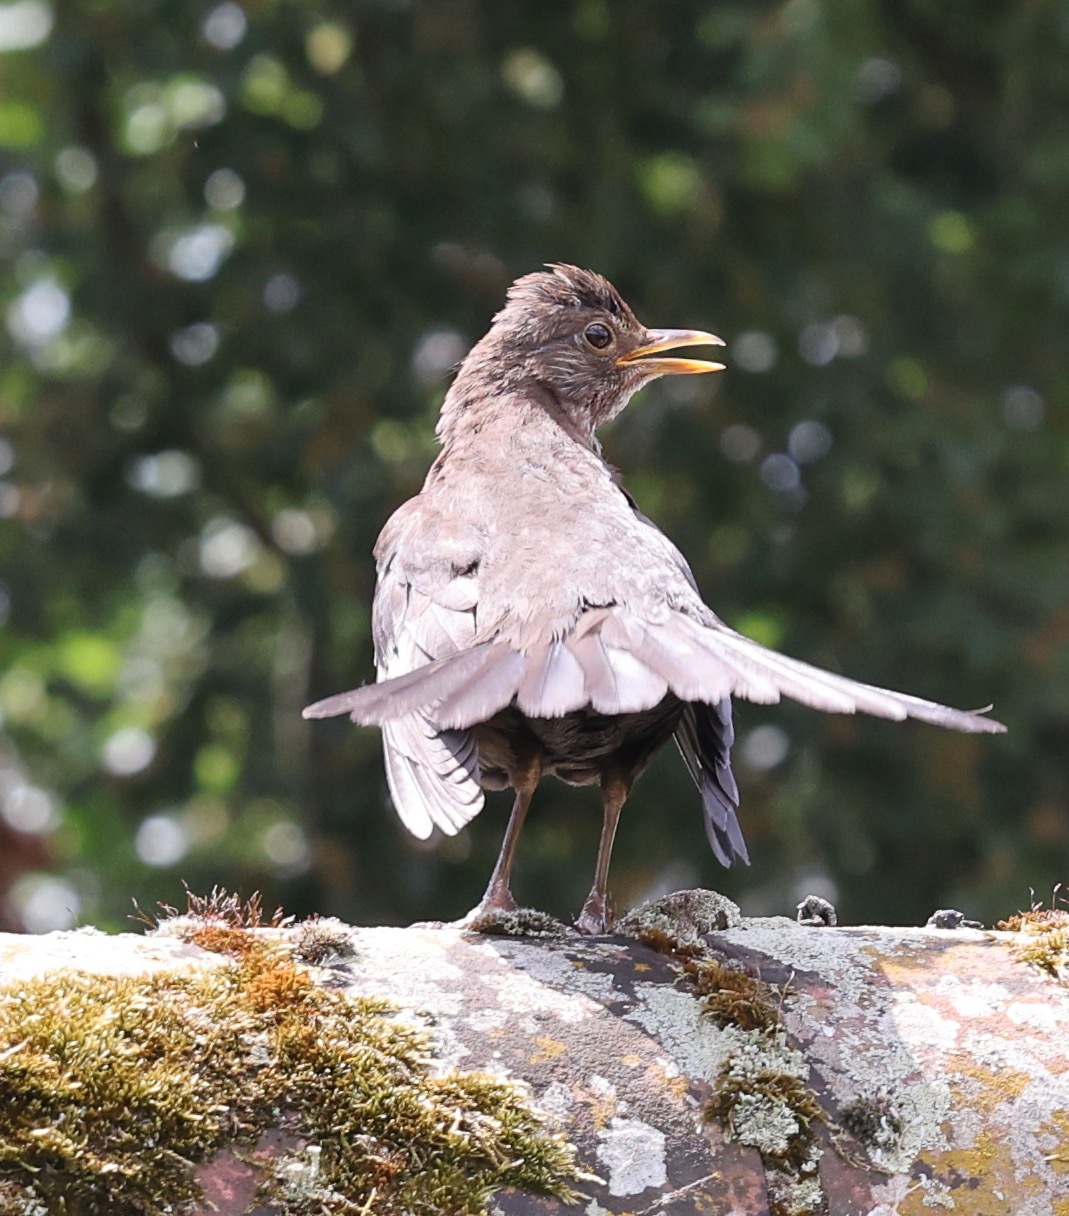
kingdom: Animalia
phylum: Chordata
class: Aves
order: Passeriformes
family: Turdidae
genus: Turdus
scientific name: Turdus merula
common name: Common blackbird
